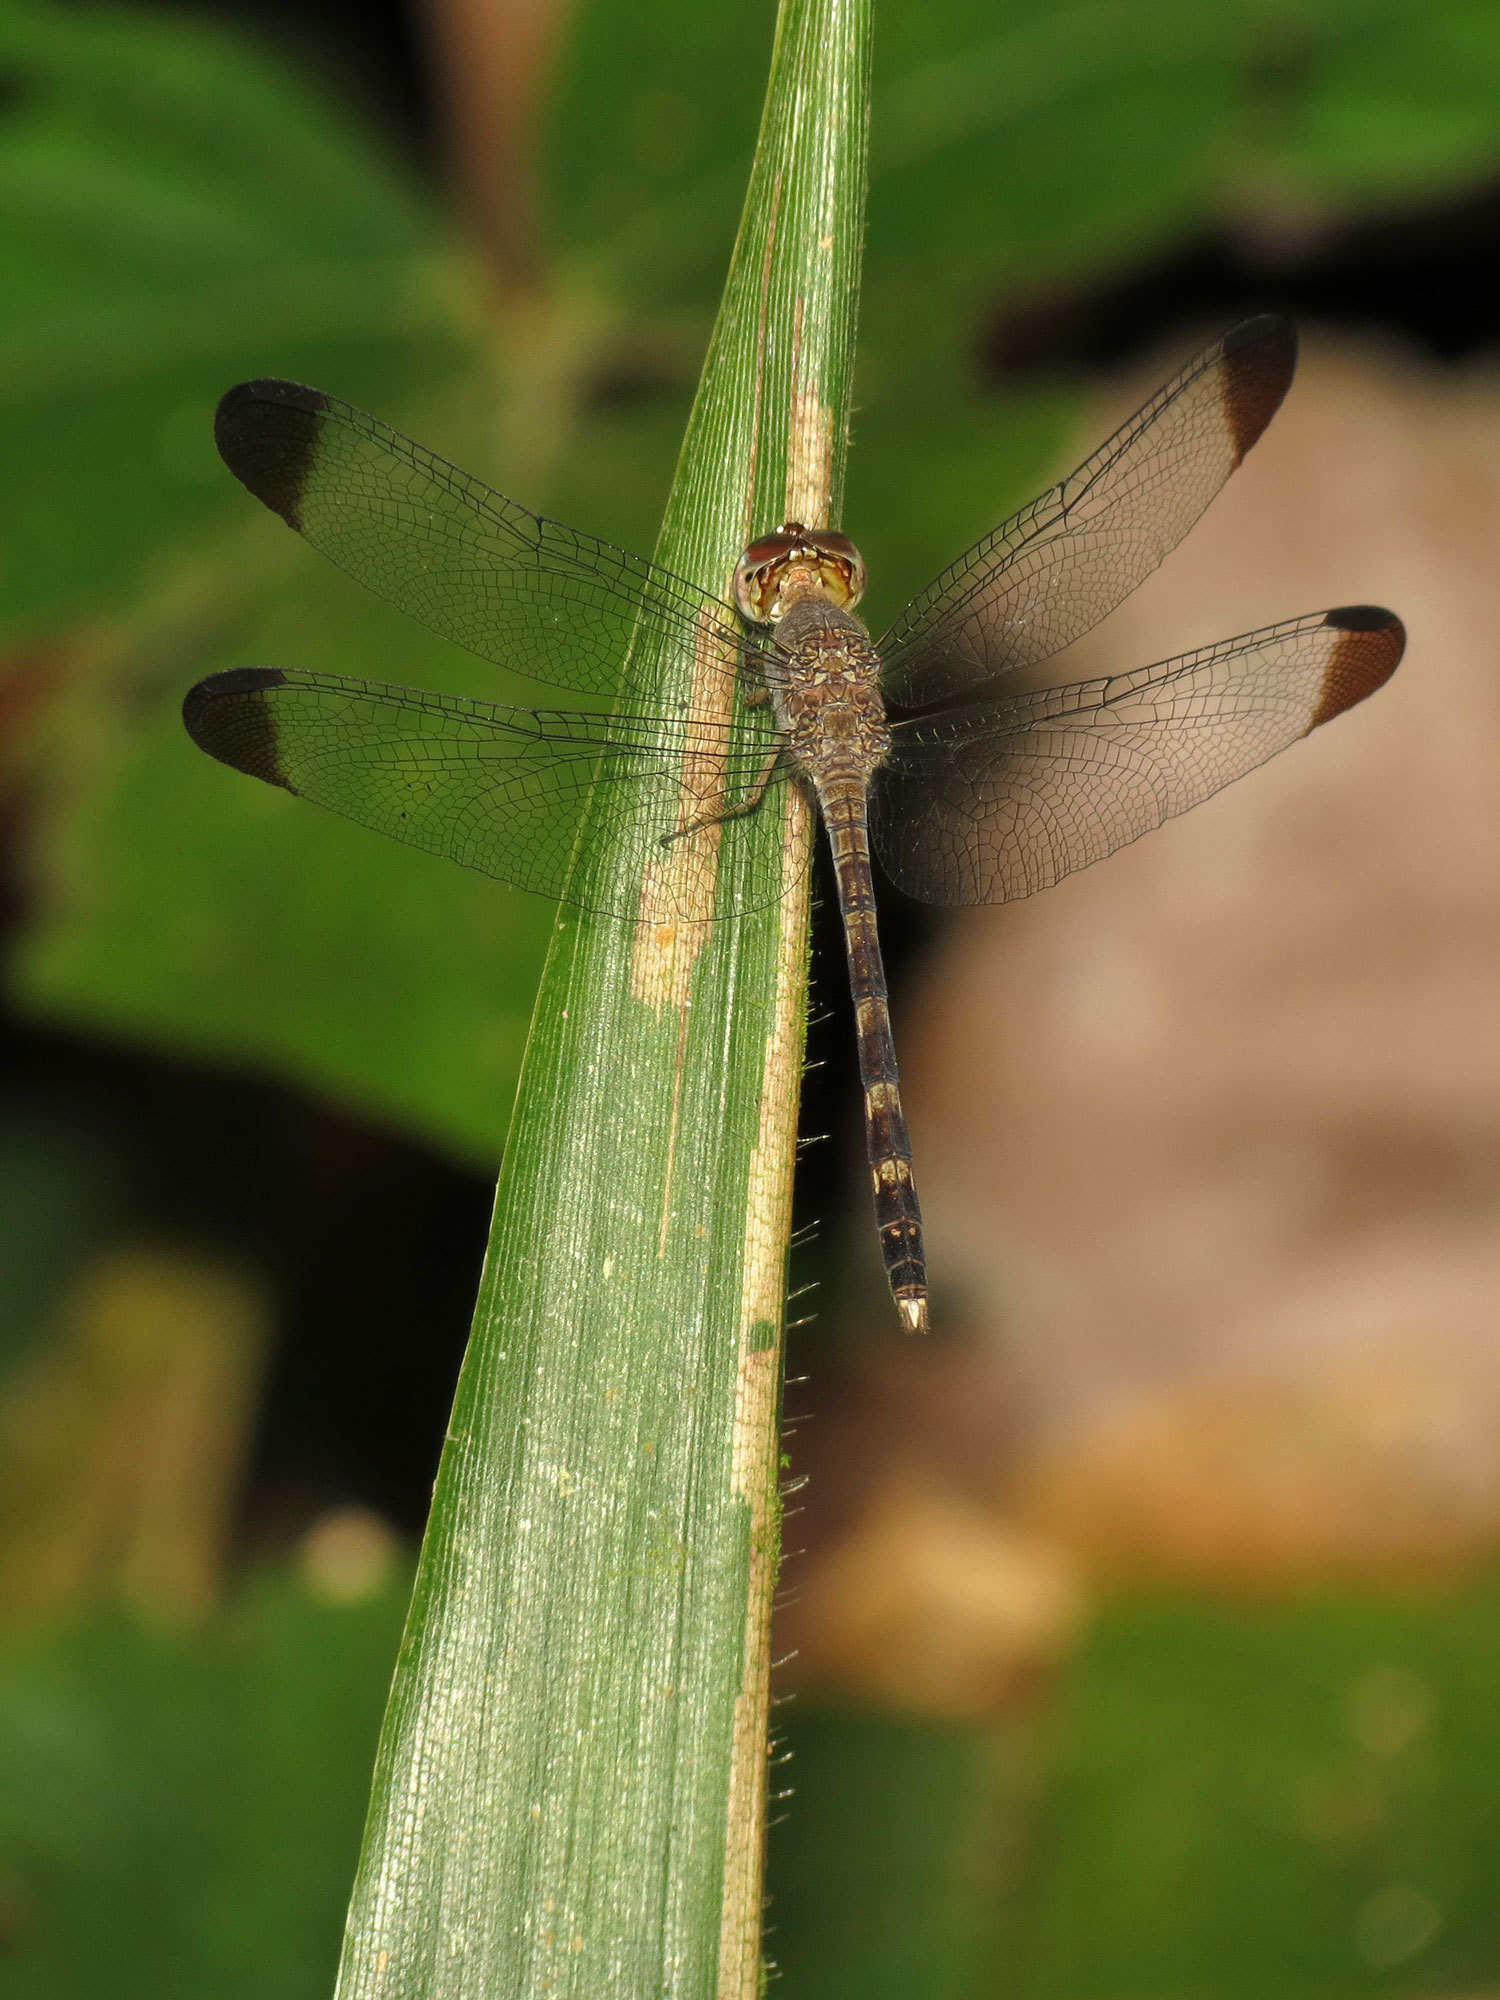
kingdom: Animalia
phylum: Arthropoda
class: Insecta
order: Odonata
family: Libellulidae
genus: Uracis
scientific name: Uracis imbuta
